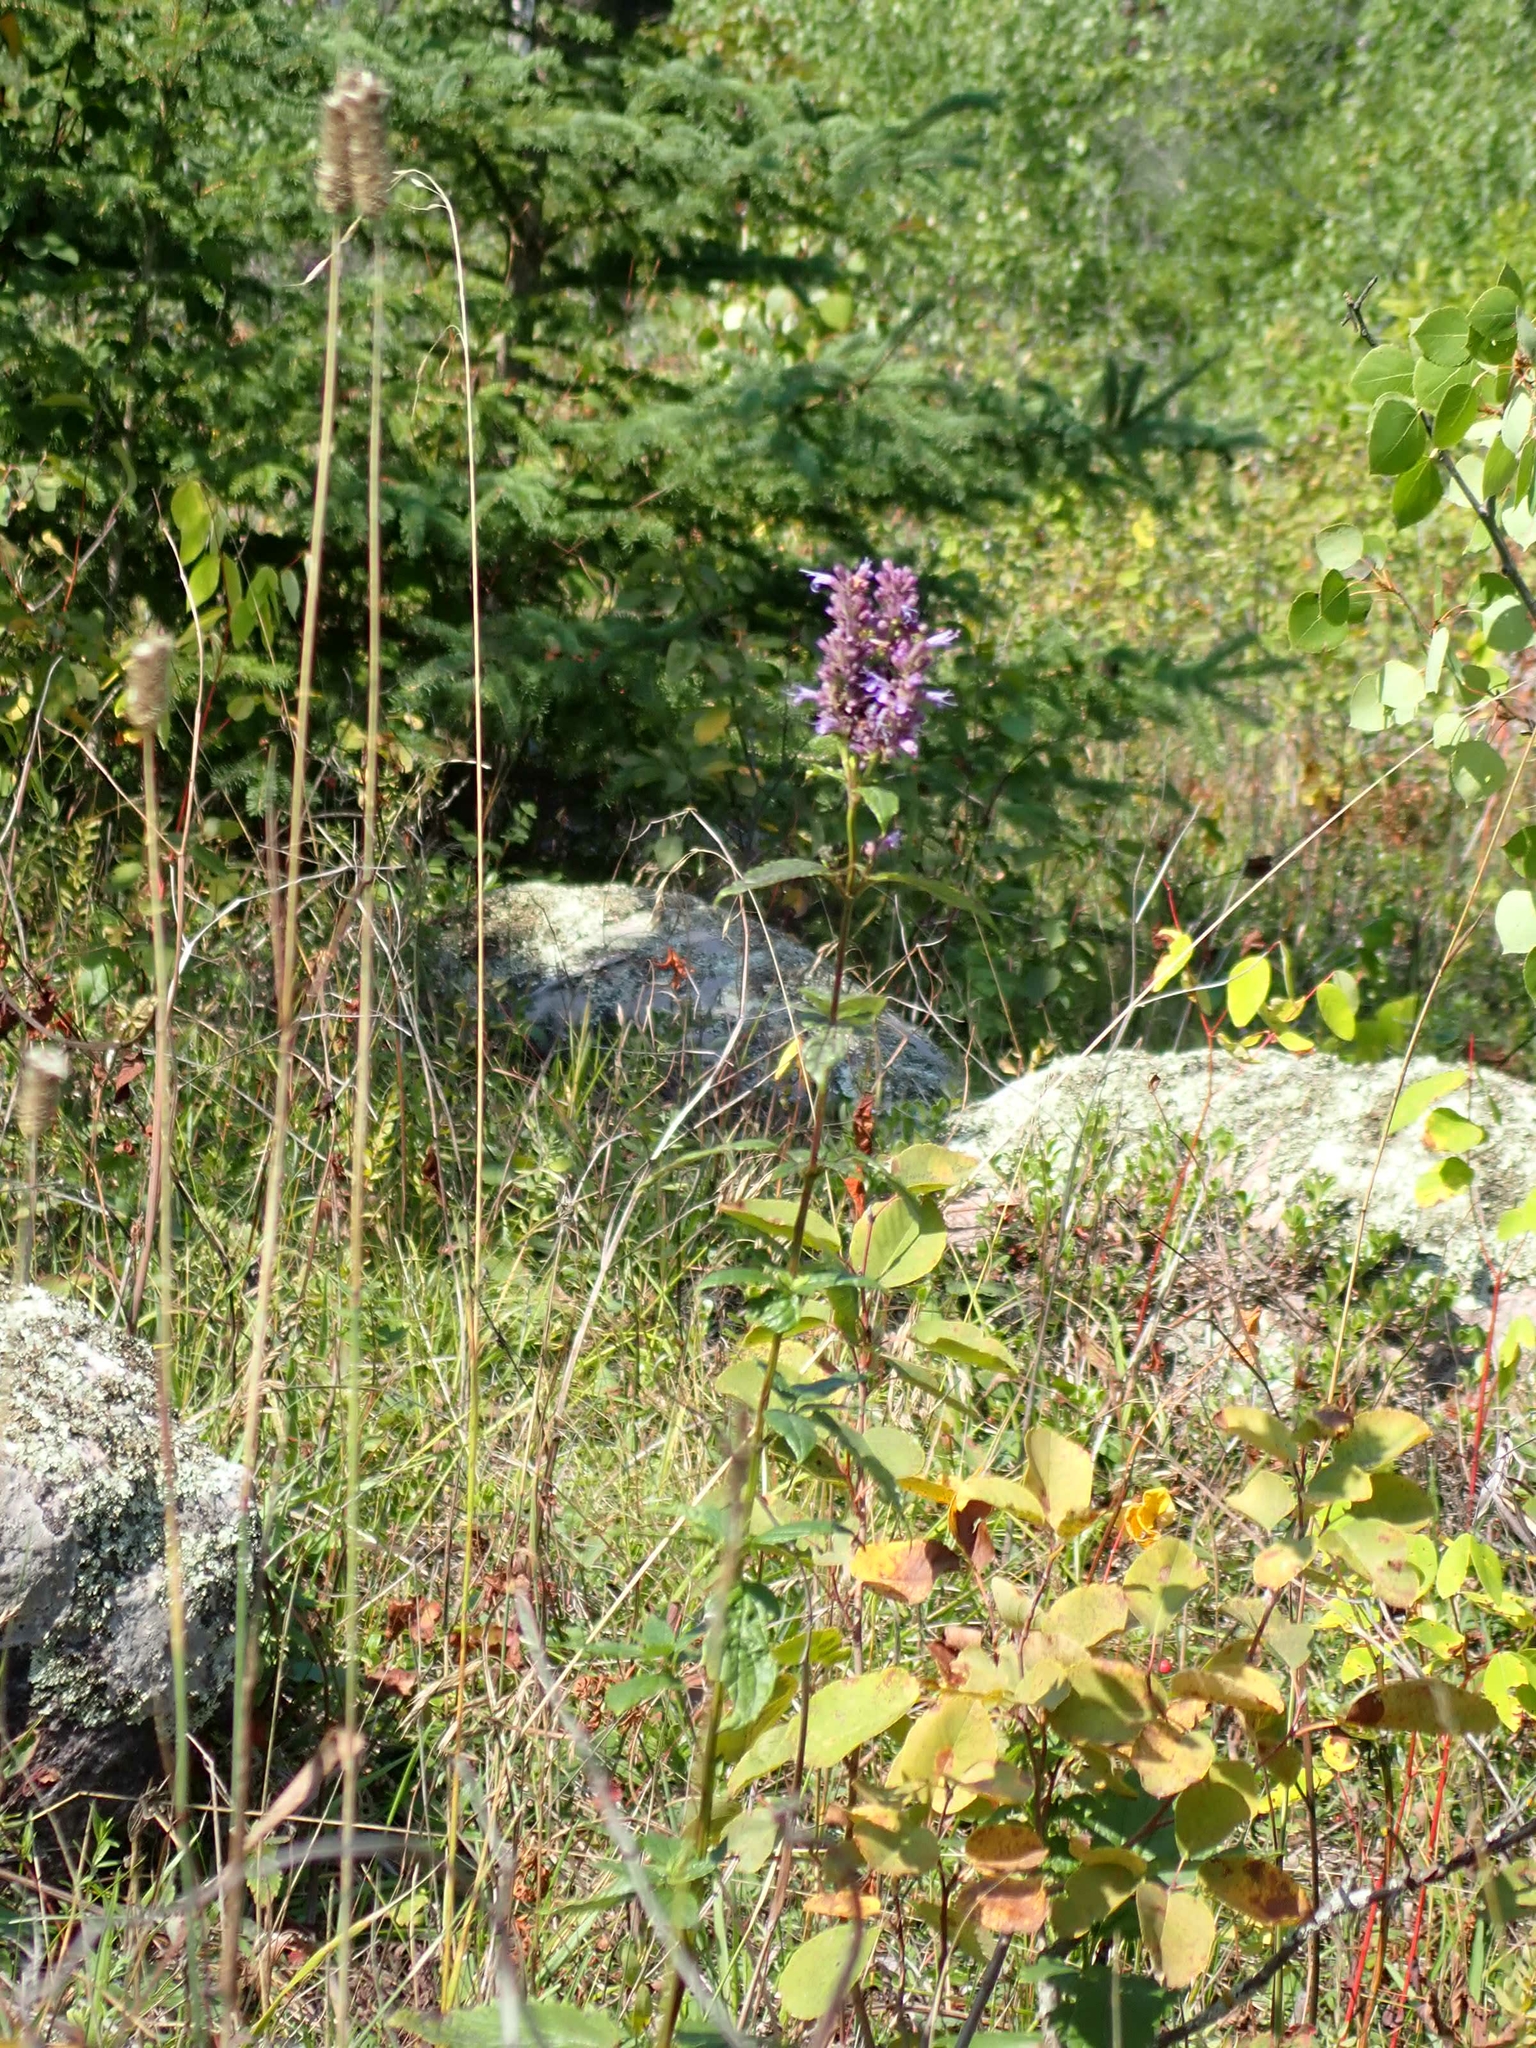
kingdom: Plantae
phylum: Tracheophyta
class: Magnoliopsida
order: Lamiales
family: Lamiaceae
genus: Agastache
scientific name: Agastache foeniculum
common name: Anise hyssop
